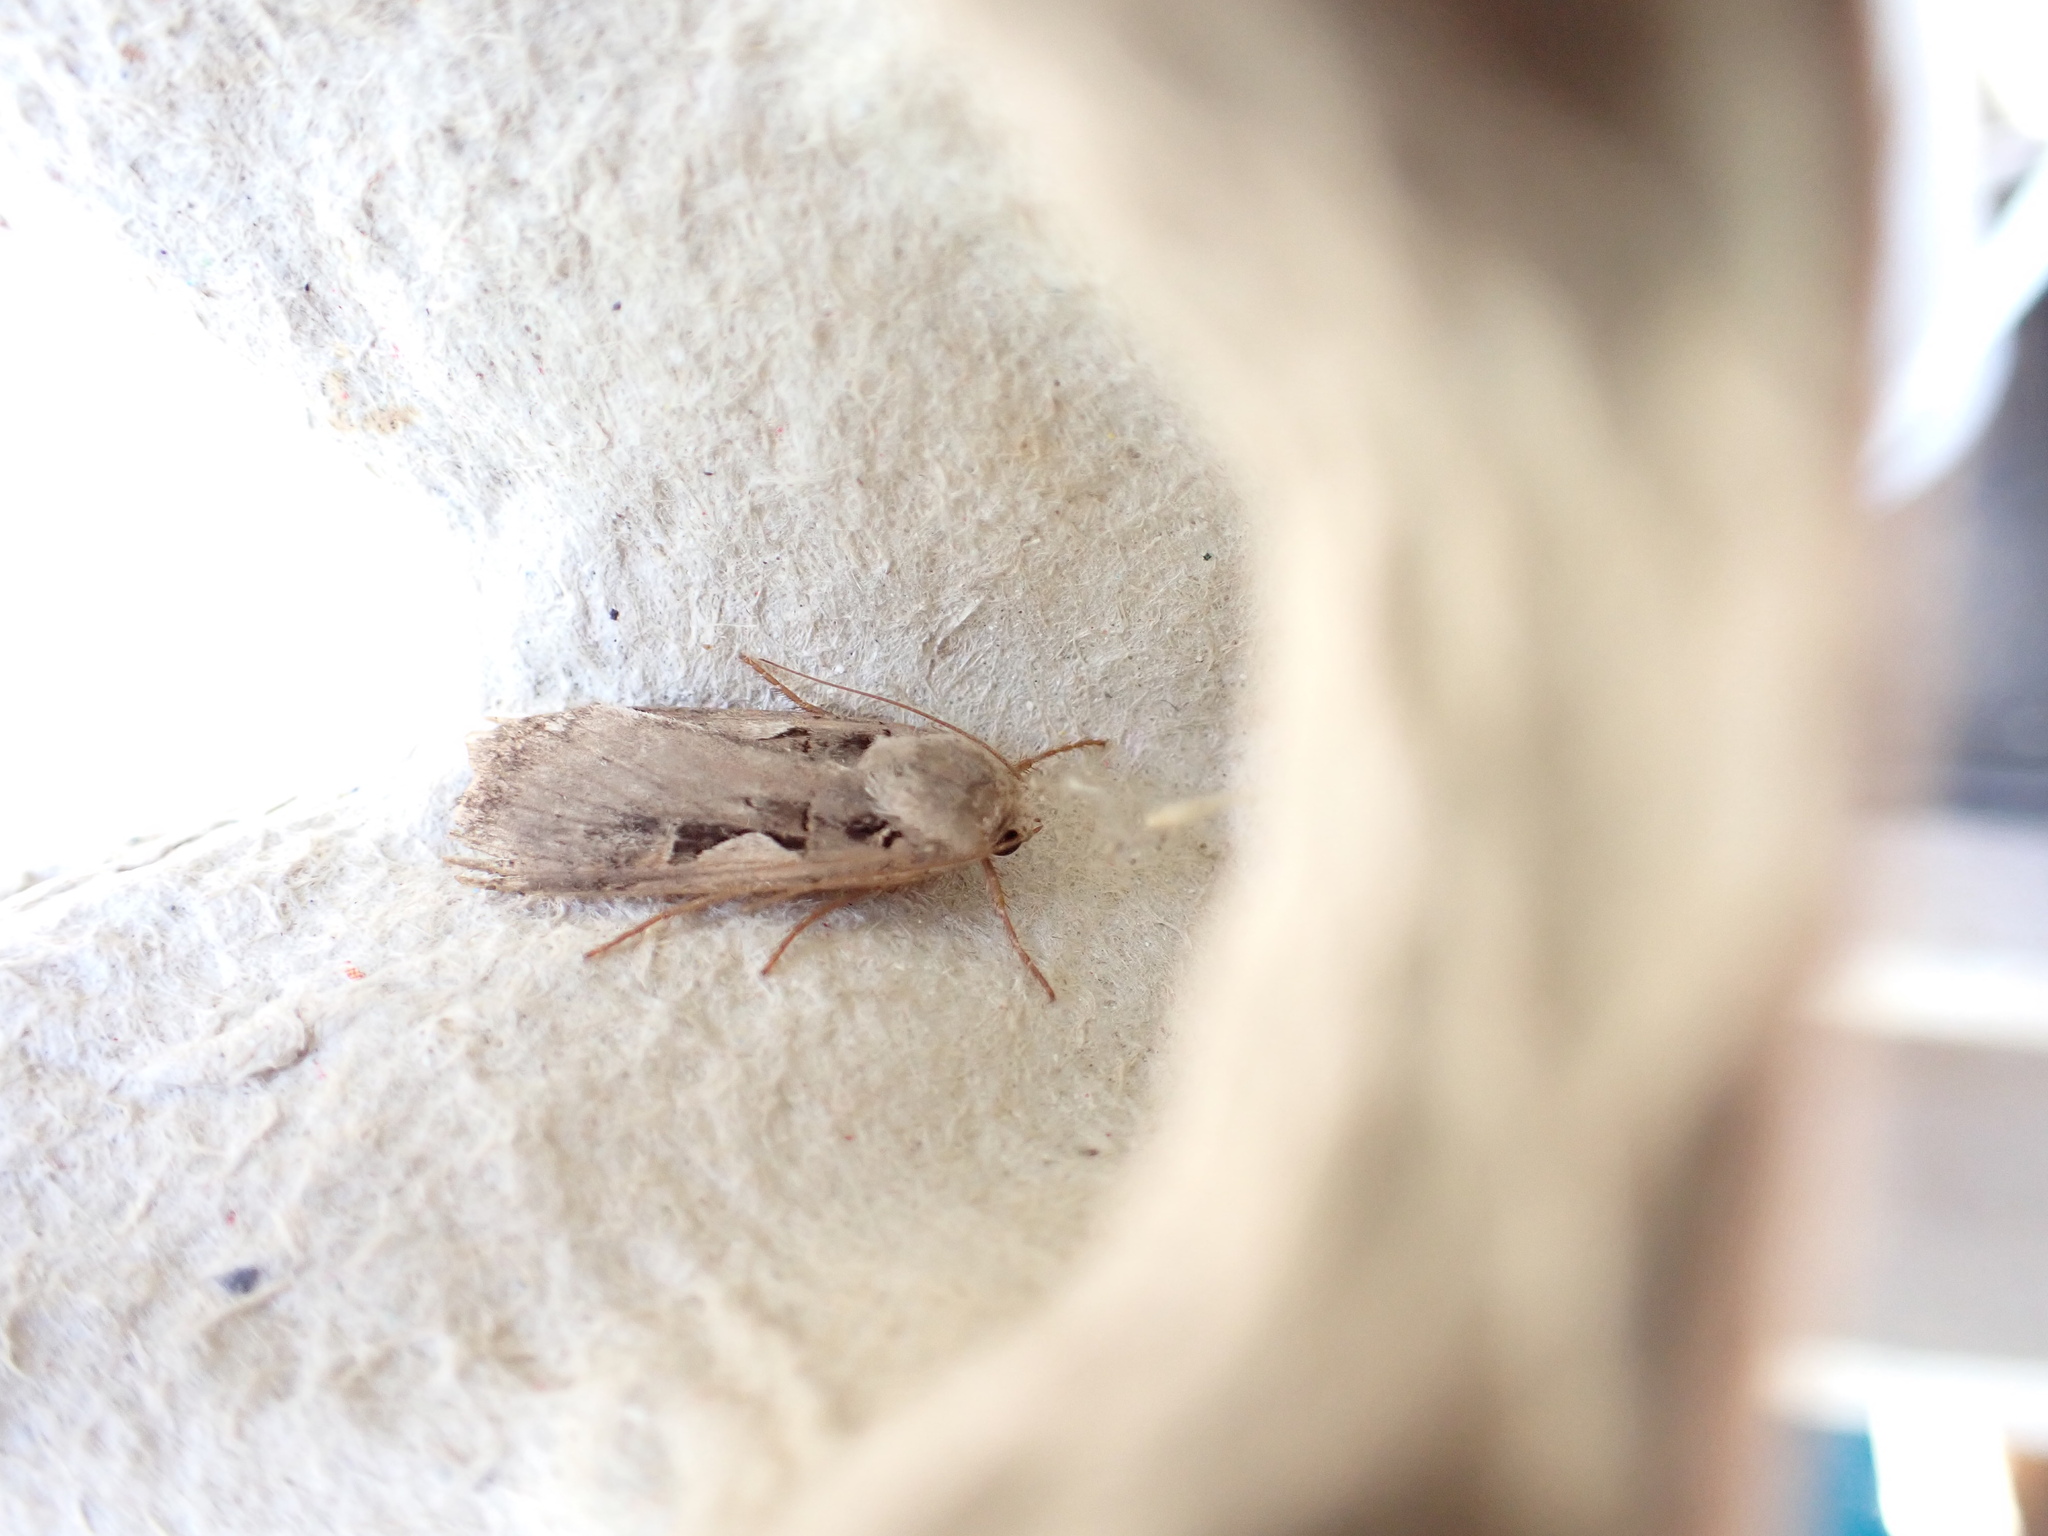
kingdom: Animalia
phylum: Arthropoda
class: Insecta
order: Lepidoptera
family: Noctuidae
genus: Xestia
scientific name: Xestia c-nigrum
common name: Setaceous hebrew character
